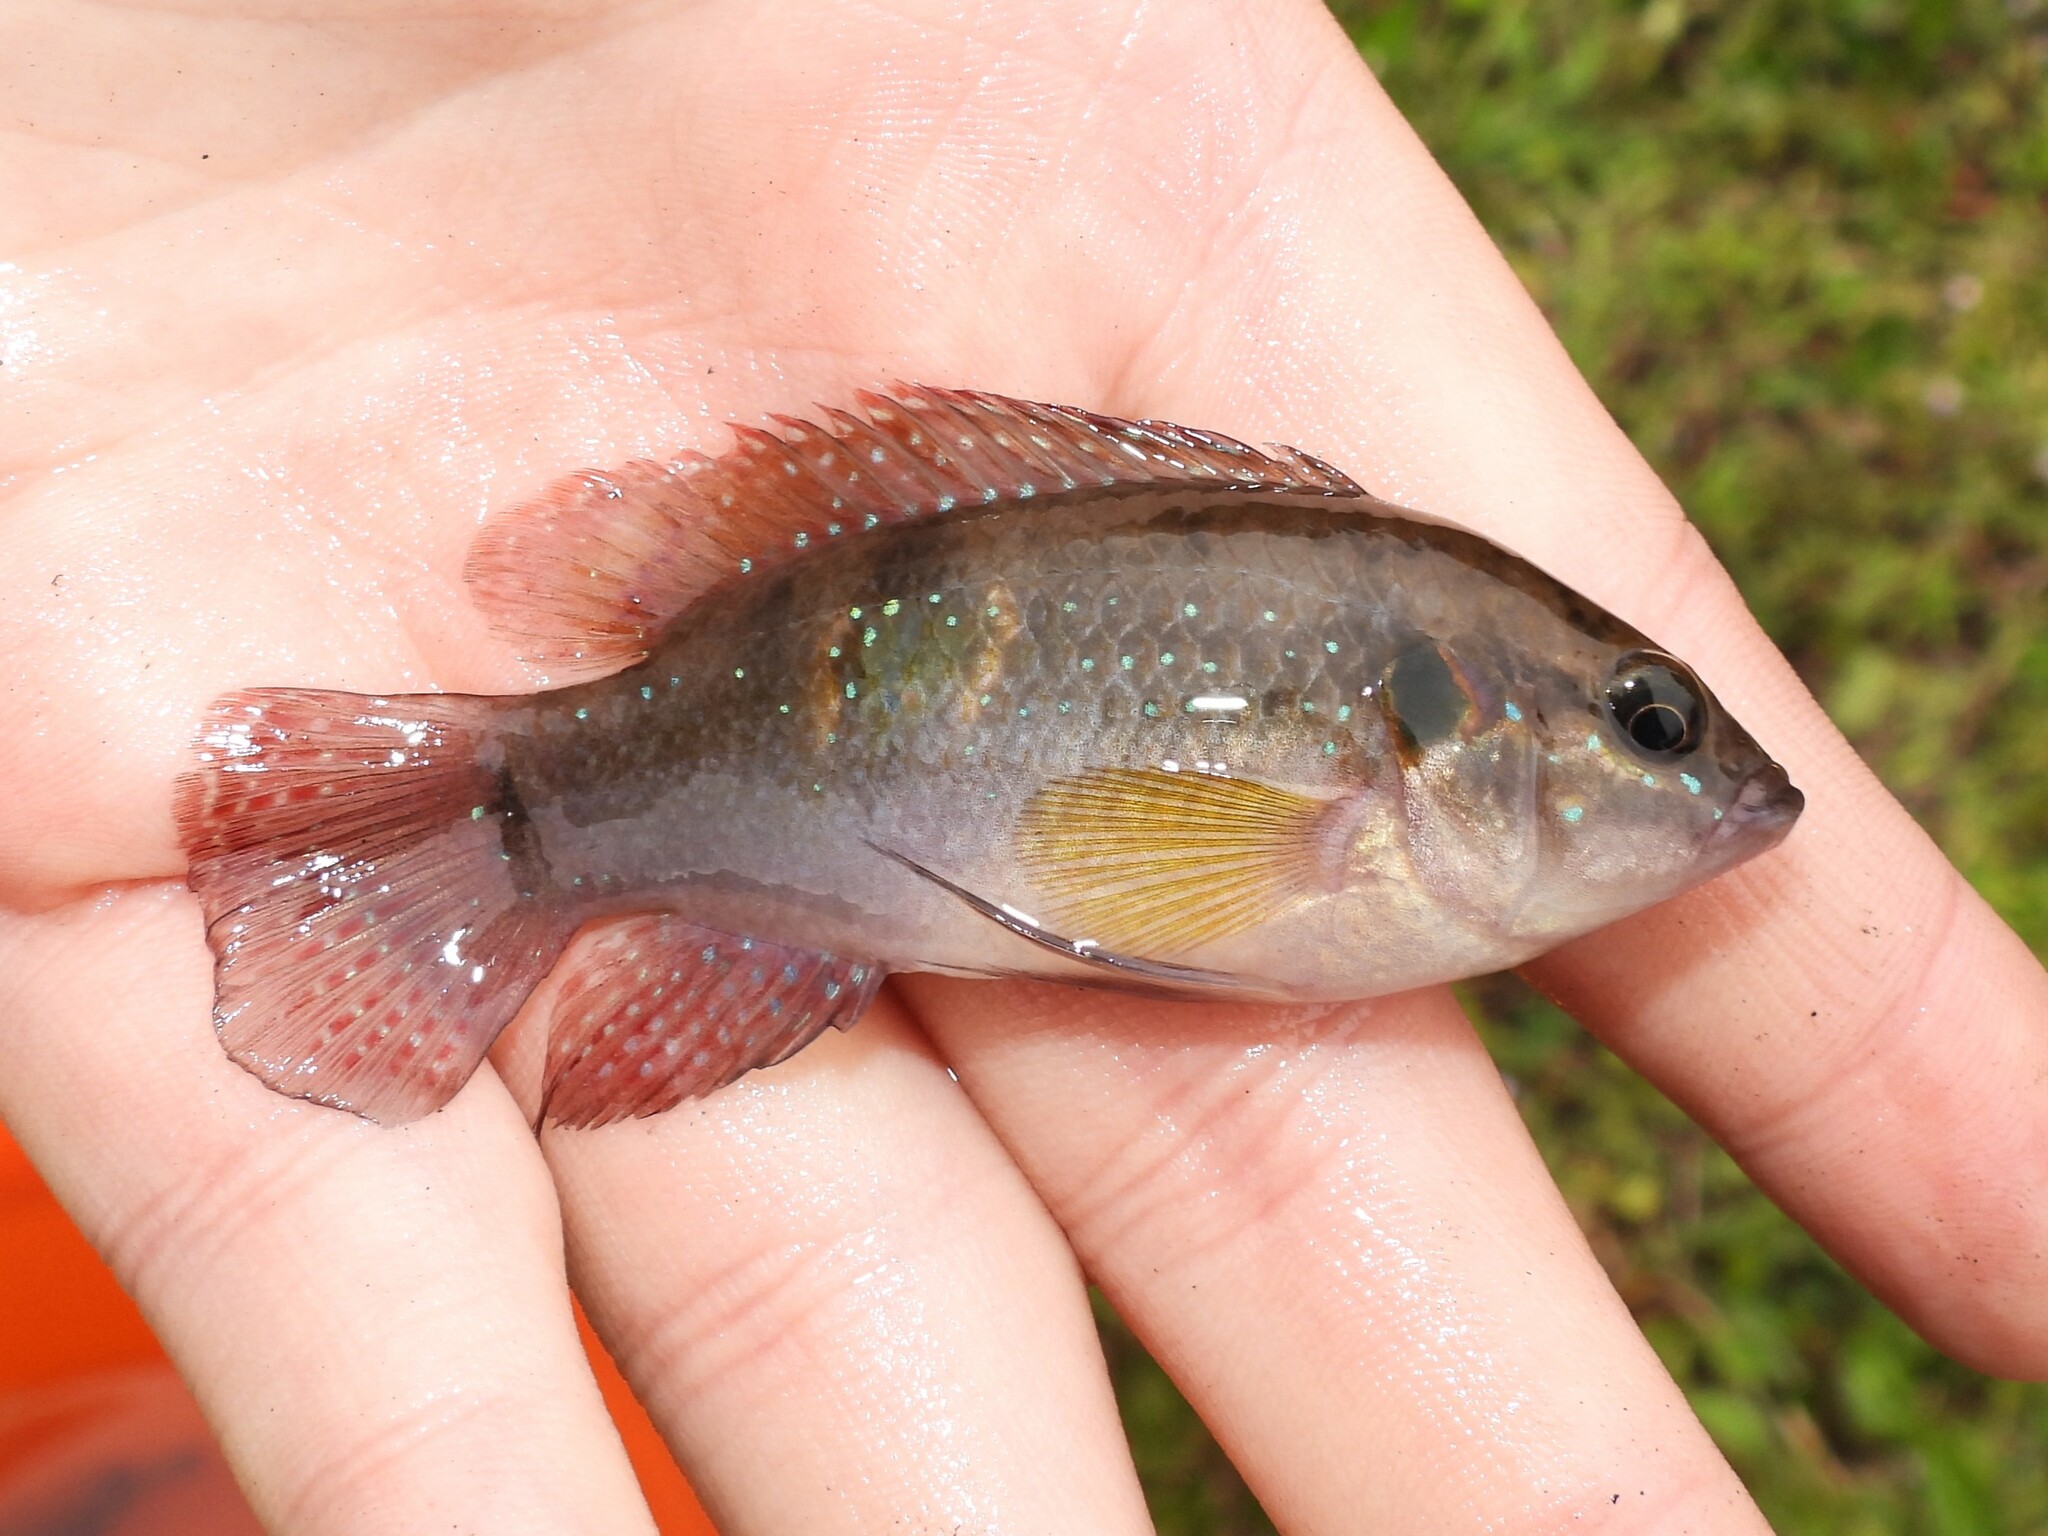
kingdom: Animalia
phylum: Chordata
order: Perciformes
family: Cichlidae
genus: Rubricatochromis
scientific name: Rubricatochromis
